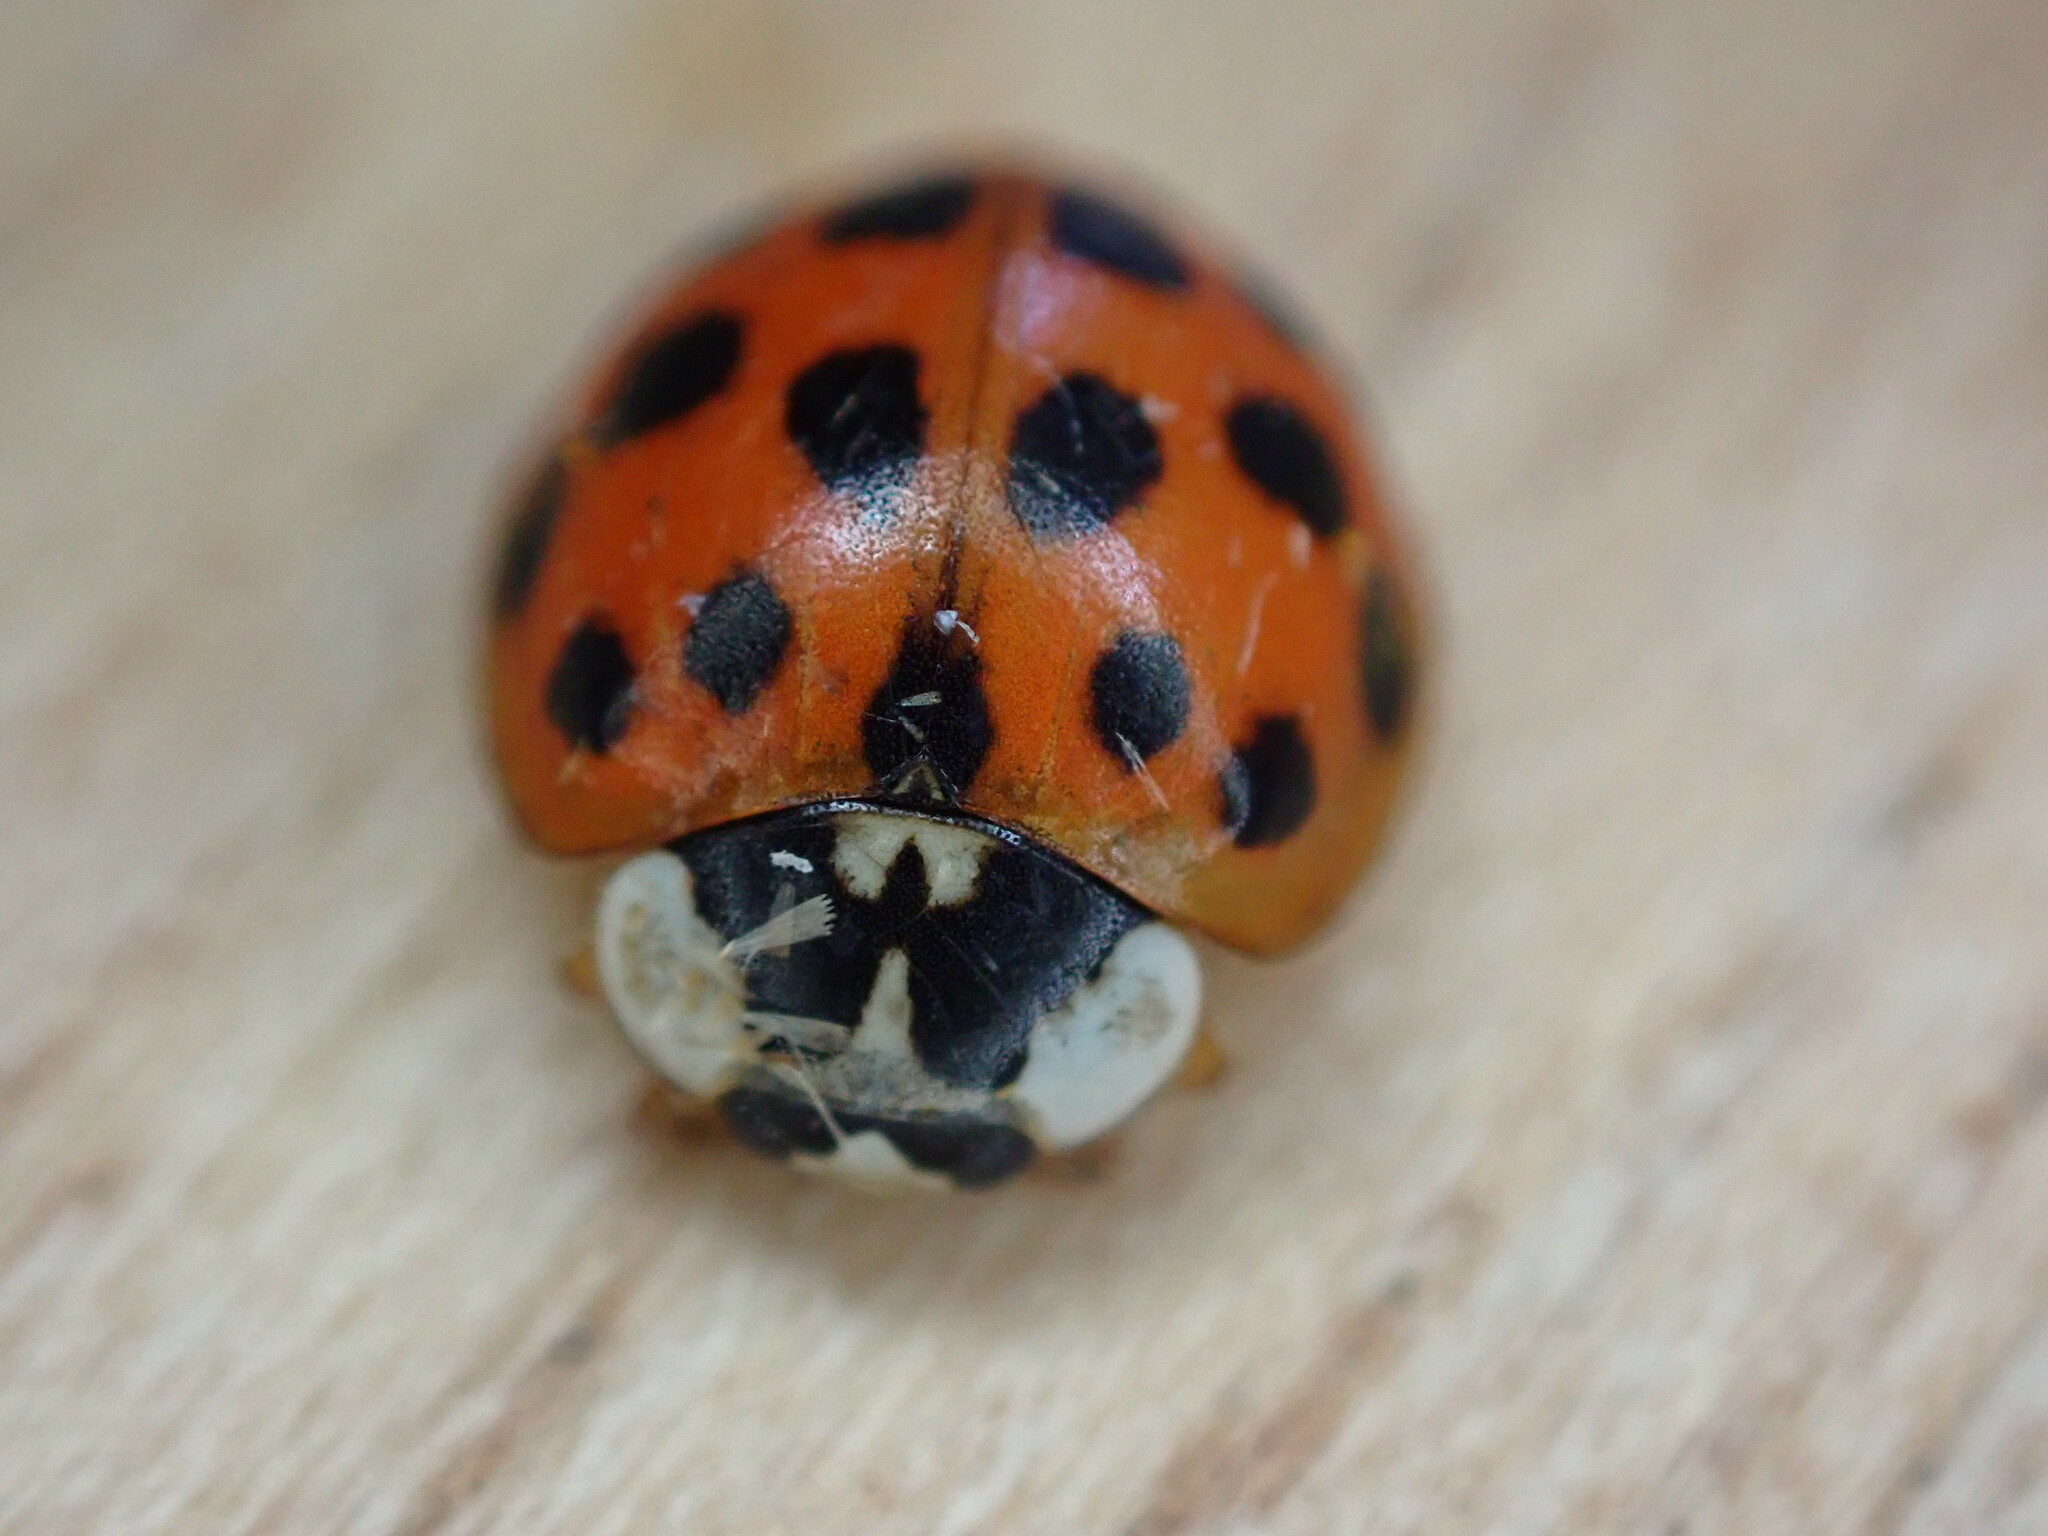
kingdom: Animalia
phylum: Arthropoda
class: Insecta
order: Coleoptera
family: Coccinellidae
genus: Harmonia
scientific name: Harmonia axyridis
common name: Harlequin ladybird
